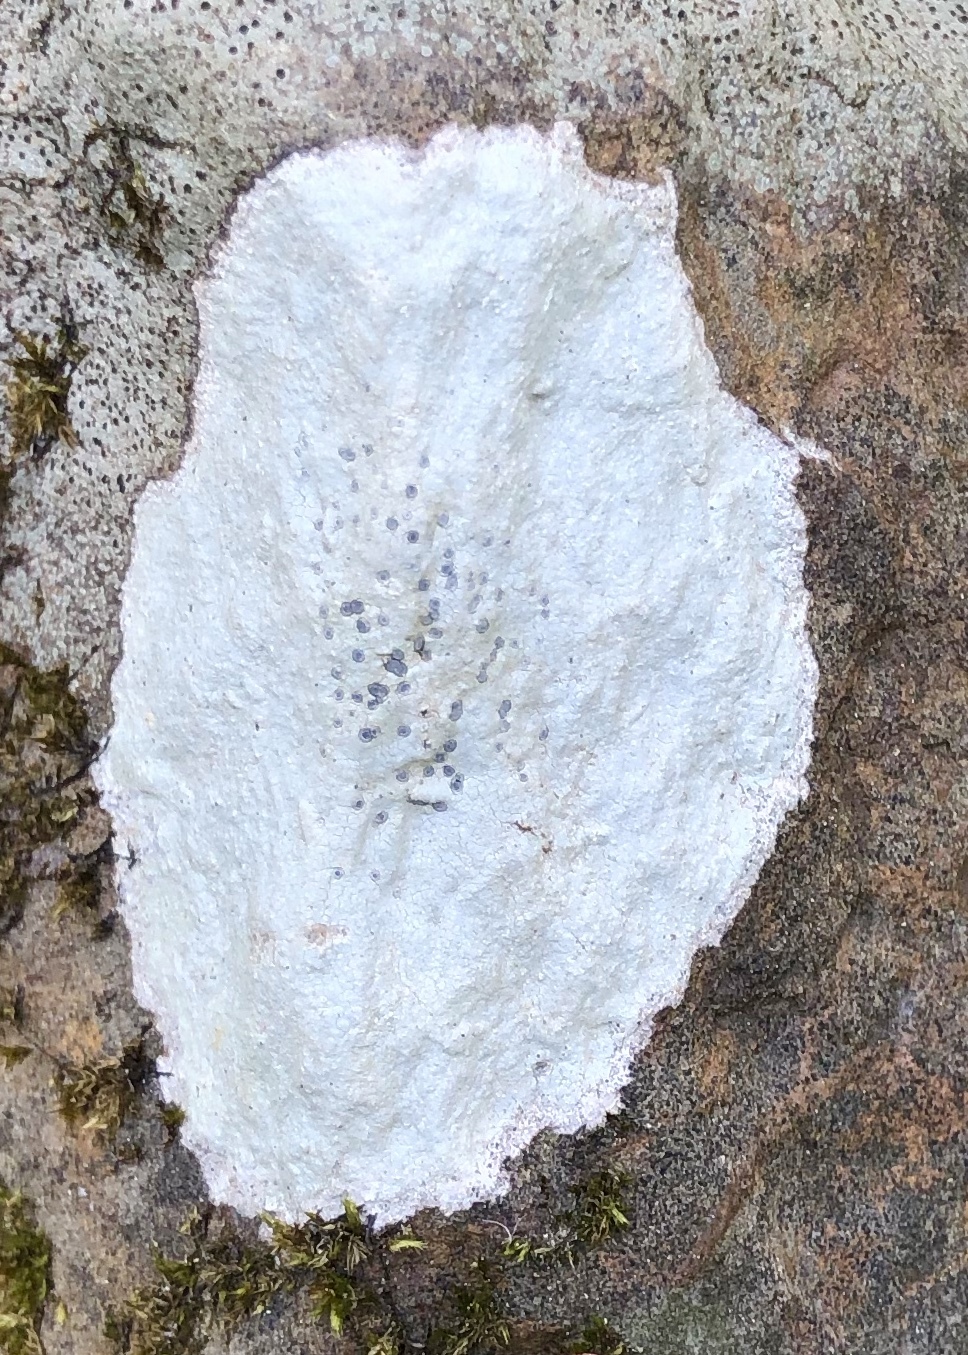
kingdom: Fungi
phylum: Ascomycota
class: Lecanoromycetes
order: Lecideales
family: Lecideaceae
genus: Porpidia
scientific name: Porpidia albocaerulescens
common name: Smokey-eyed boulder lichen
